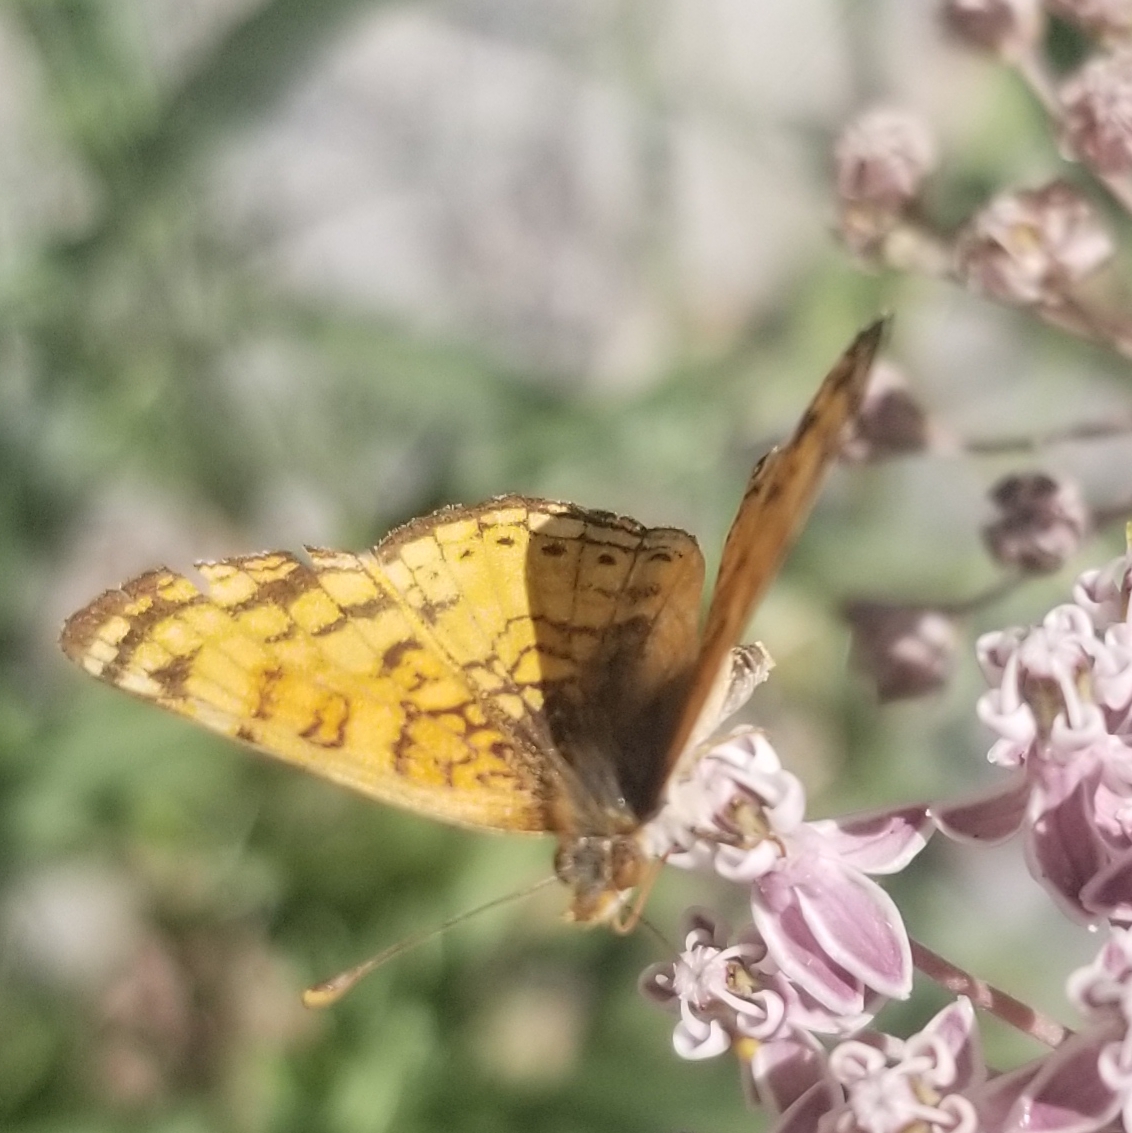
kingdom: Animalia
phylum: Arthropoda
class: Insecta
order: Lepidoptera
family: Nymphalidae
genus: Eresia
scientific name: Eresia aveyrona
